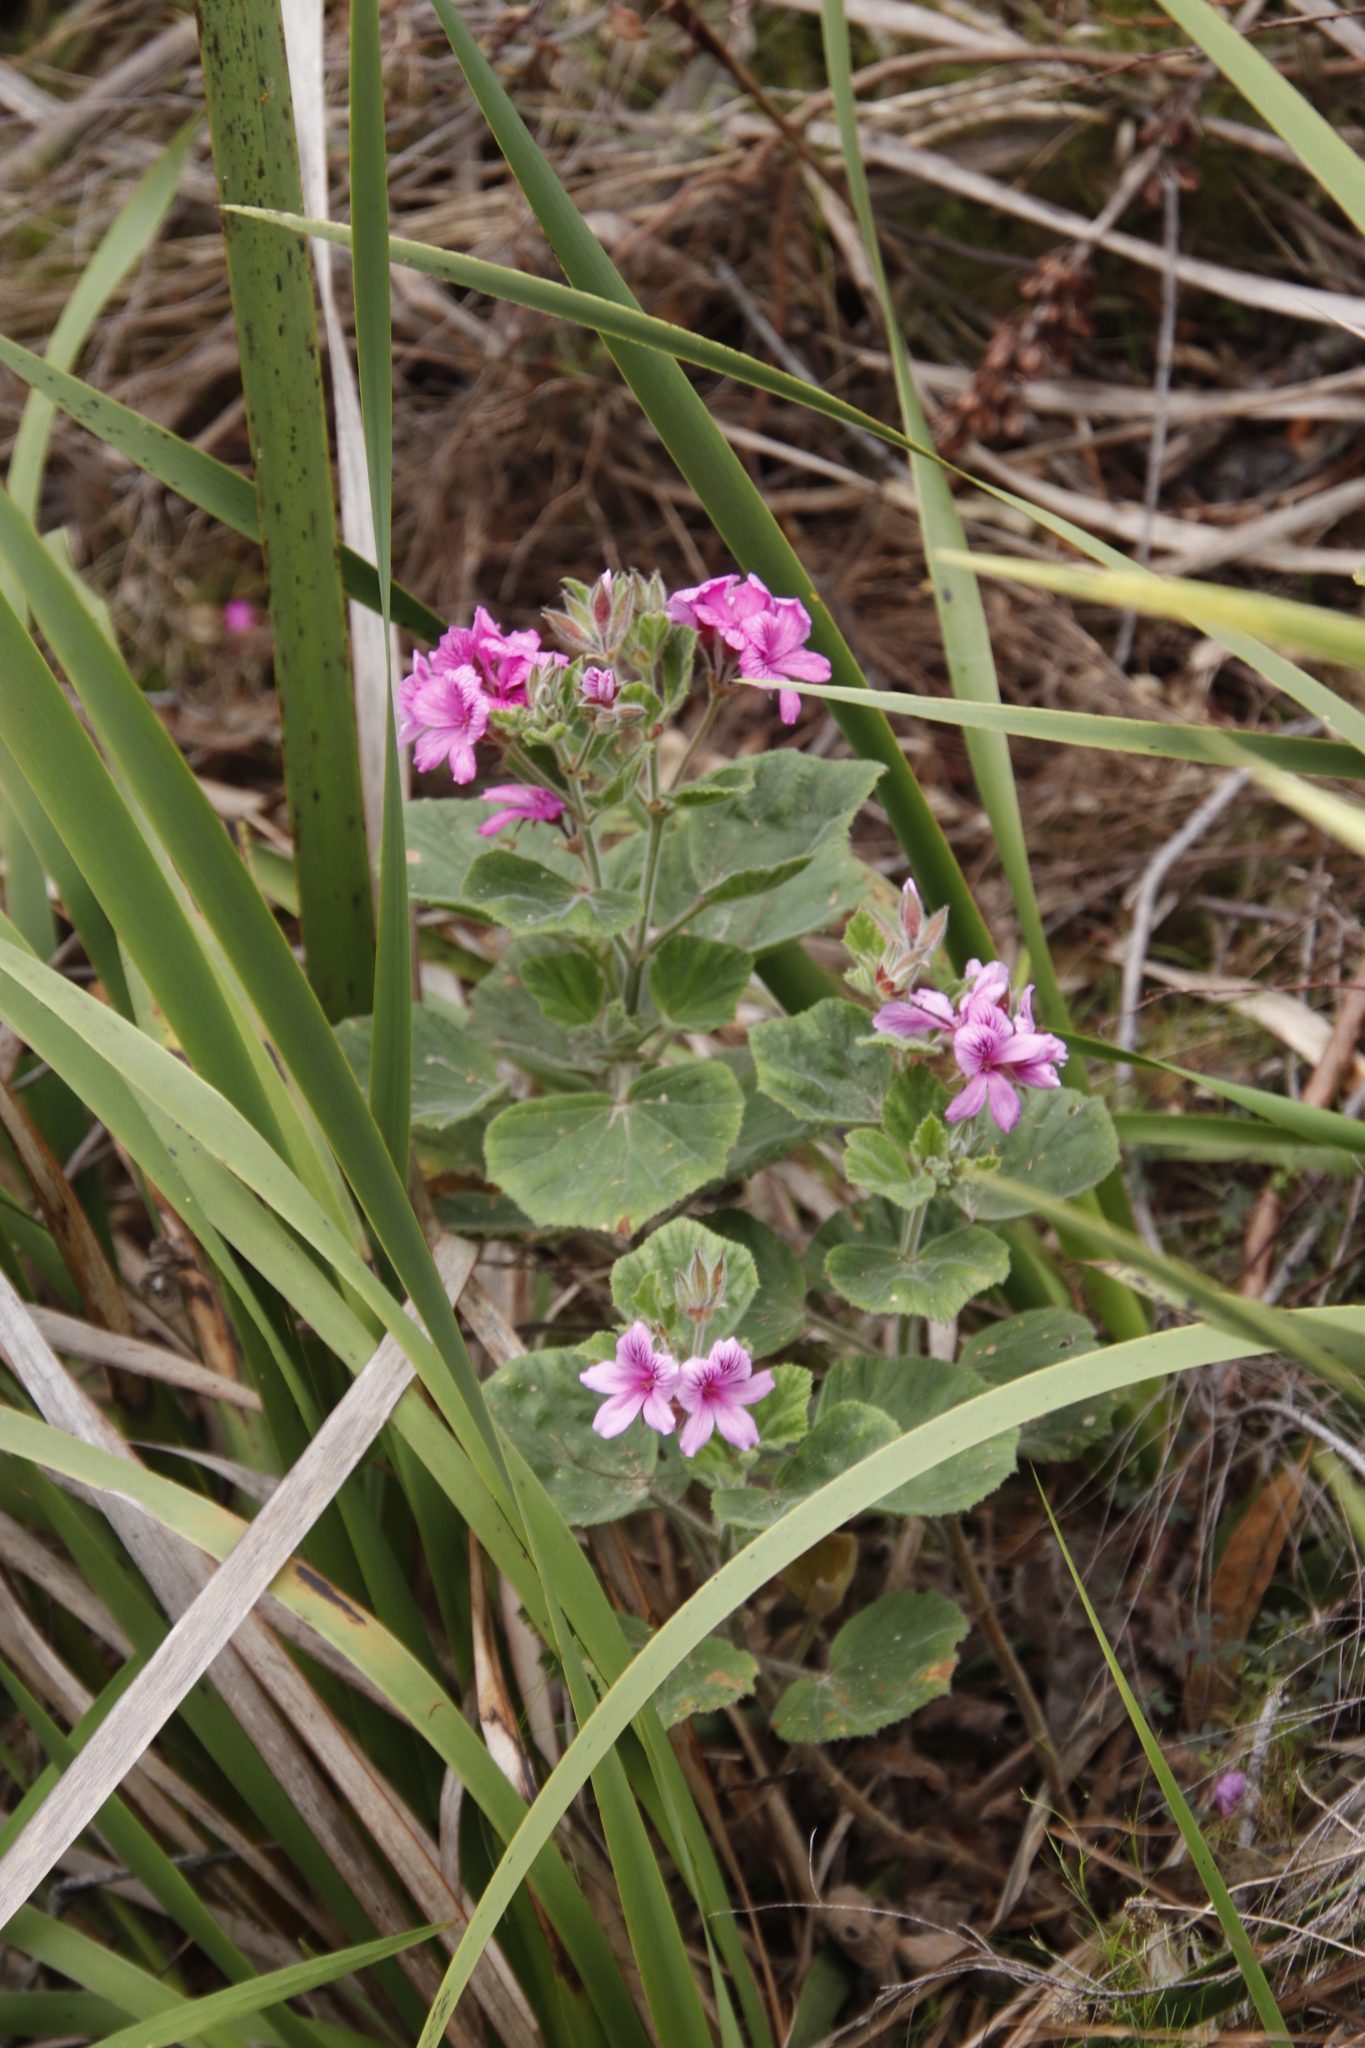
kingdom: Plantae
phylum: Tracheophyta
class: Magnoliopsida
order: Geraniales
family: Geraniaceae
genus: Pelargonium
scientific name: Pelargonium cucullatum
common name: Tree pelargonium
